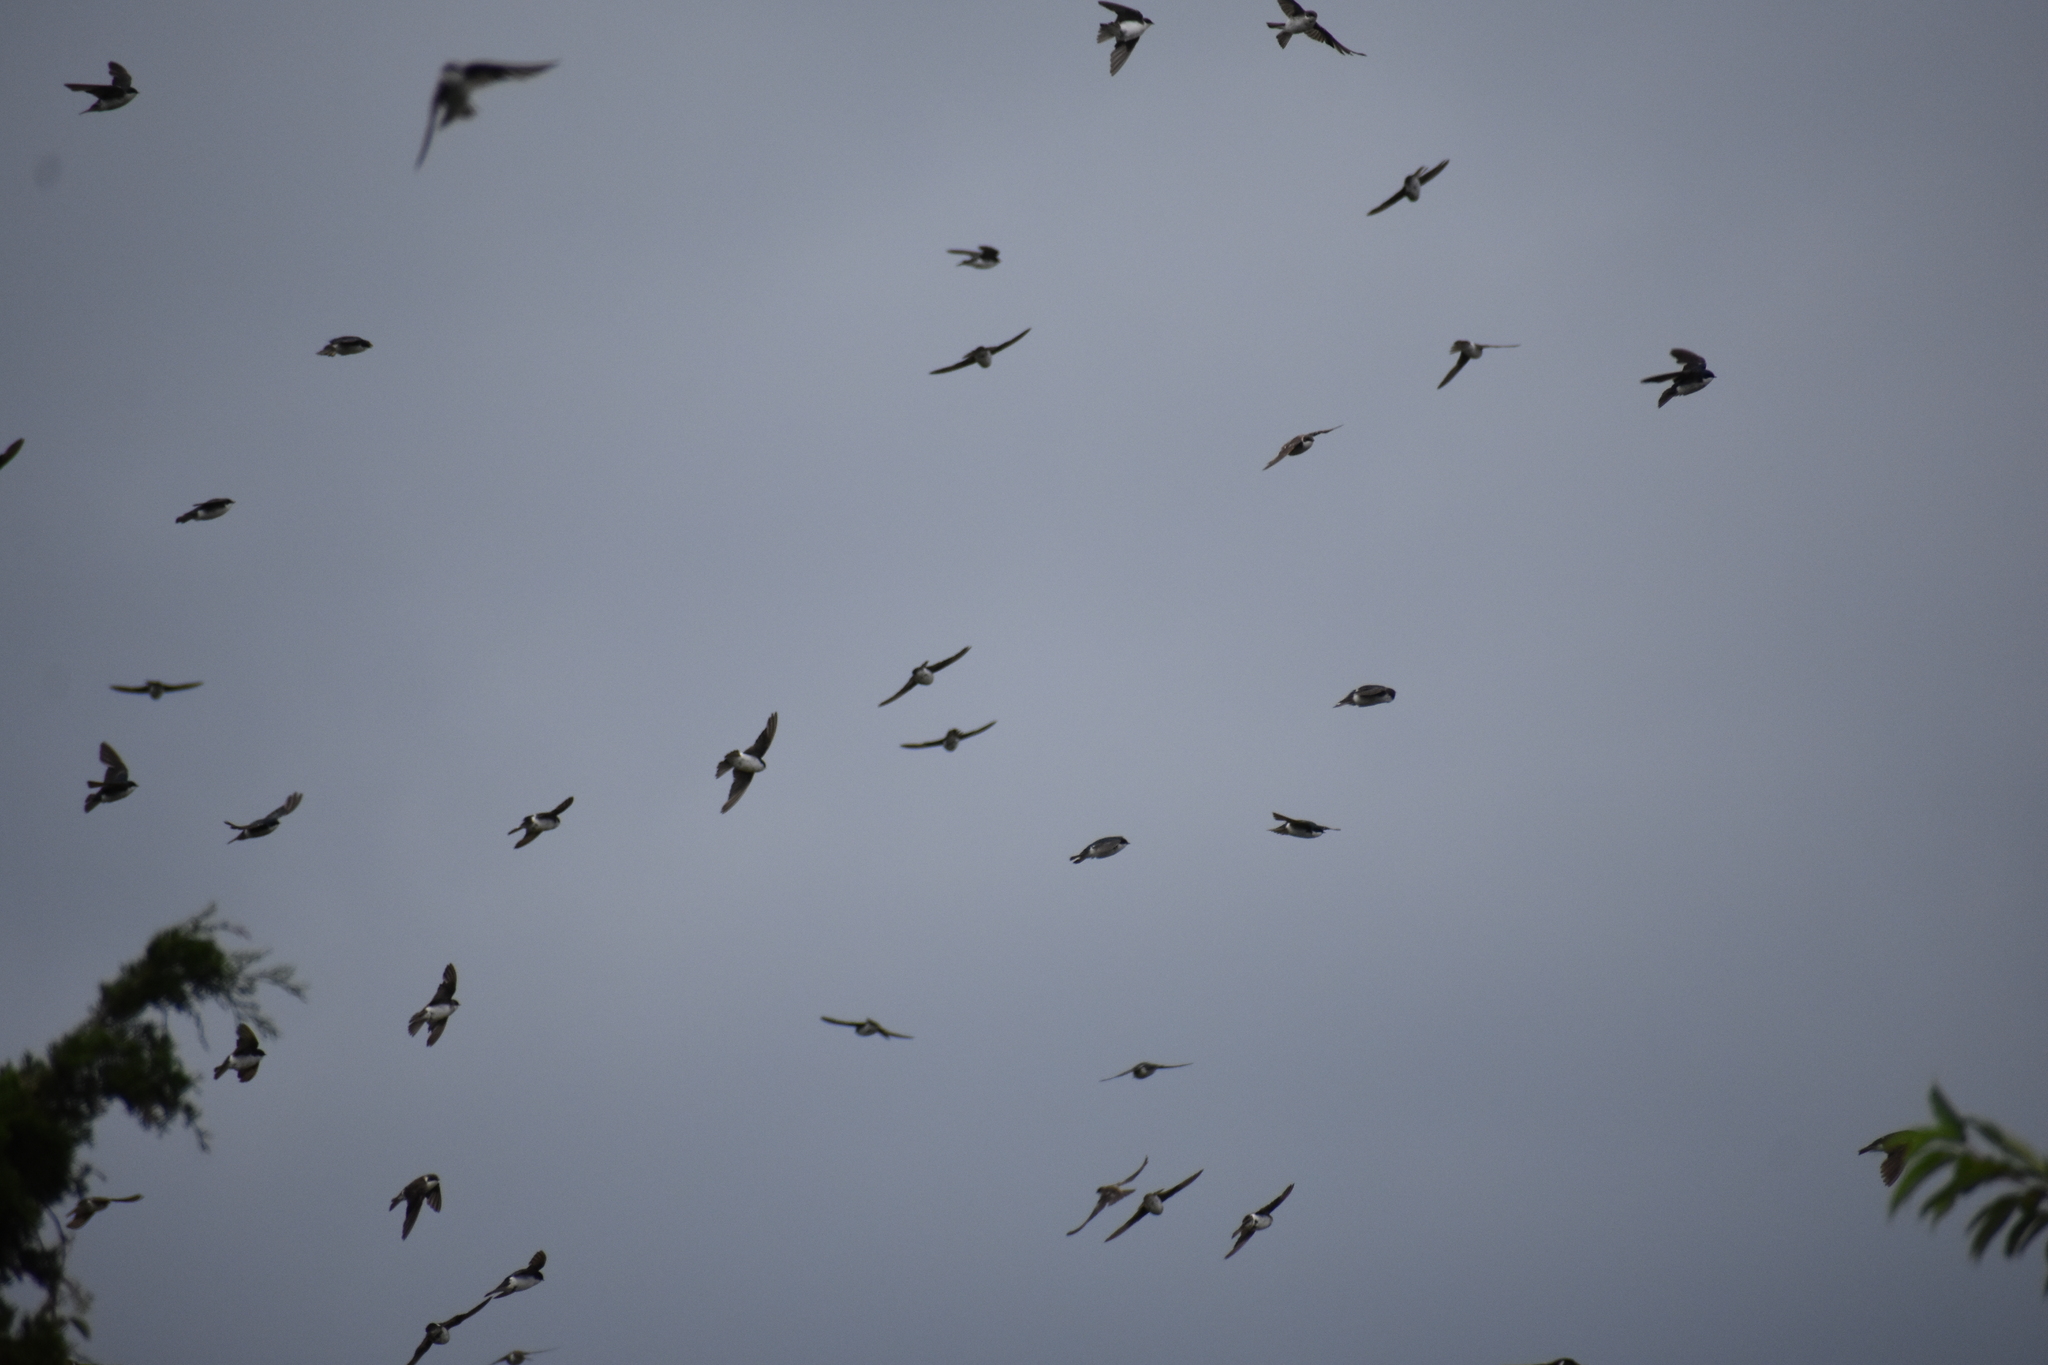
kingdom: Animalia
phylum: Chordata
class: Aves
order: Passeriformes
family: Hirundinidae
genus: Tachycineta
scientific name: Tachycineta bicolor
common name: Tree swallow
